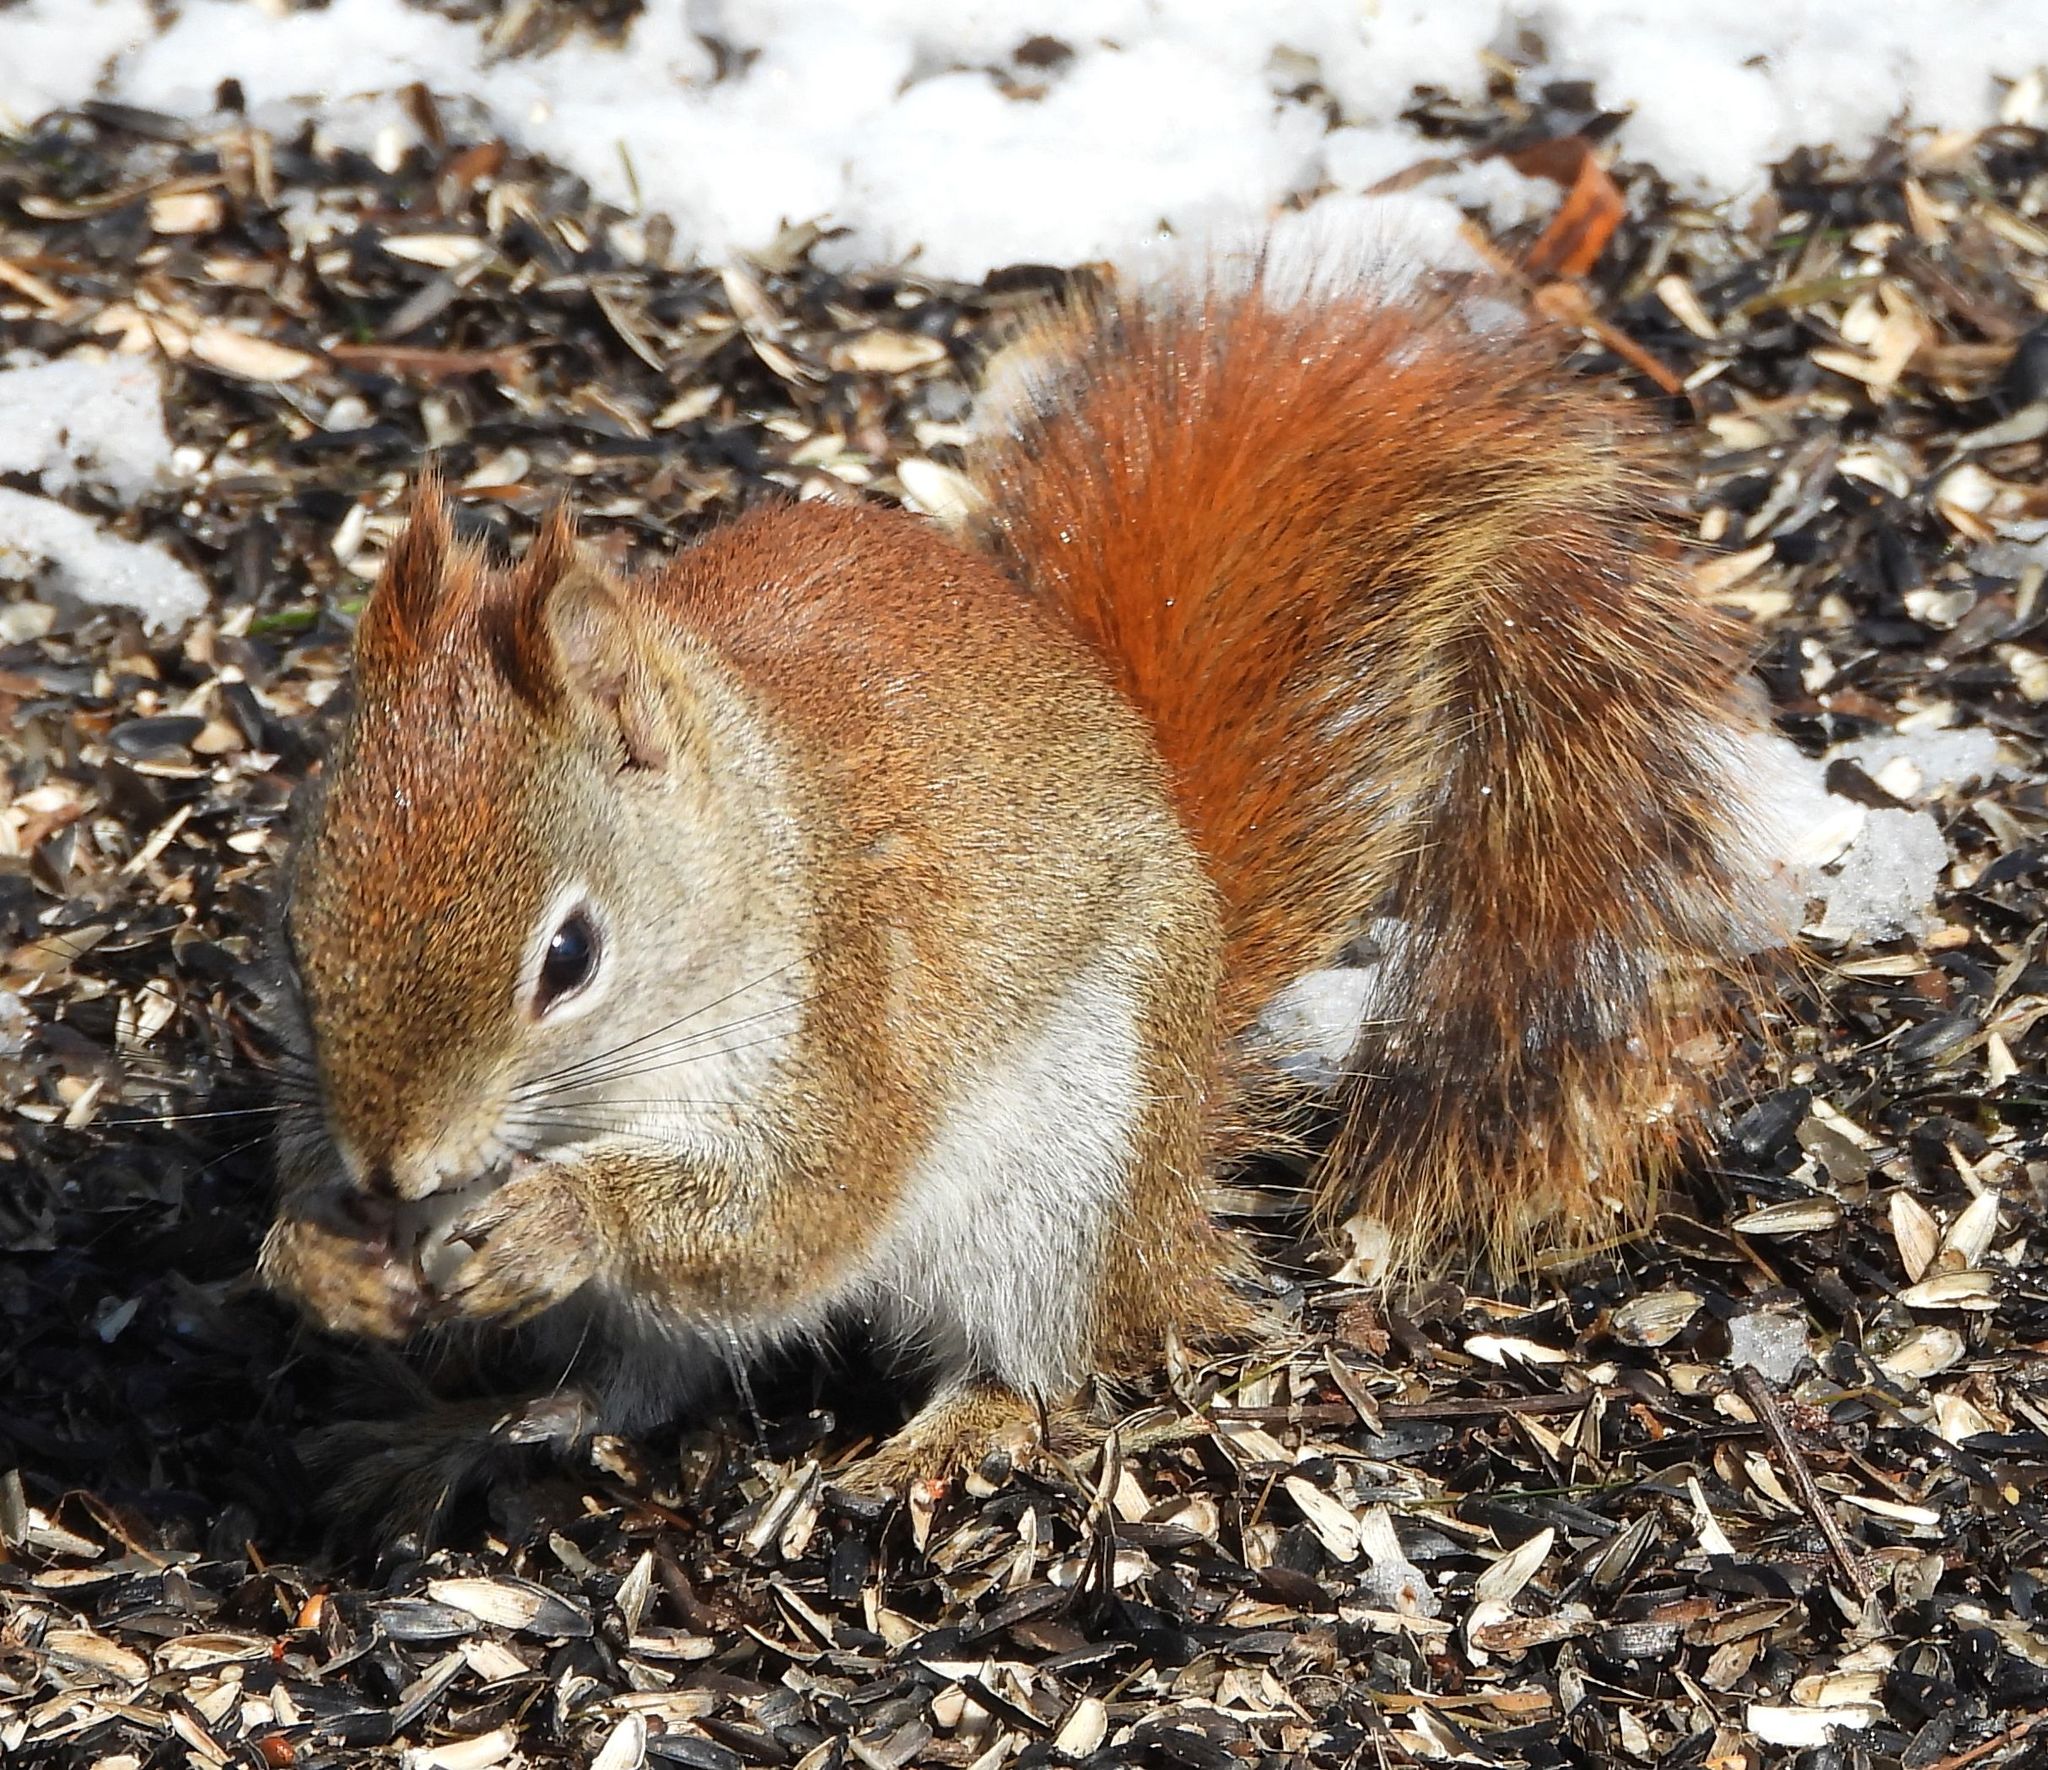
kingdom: Animalia
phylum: Chordata
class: Mammalia
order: Rodentia
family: Sciuridae
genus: Tamiasciurus
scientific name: Tamiasciurus hudsonicus
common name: Red squirrel
